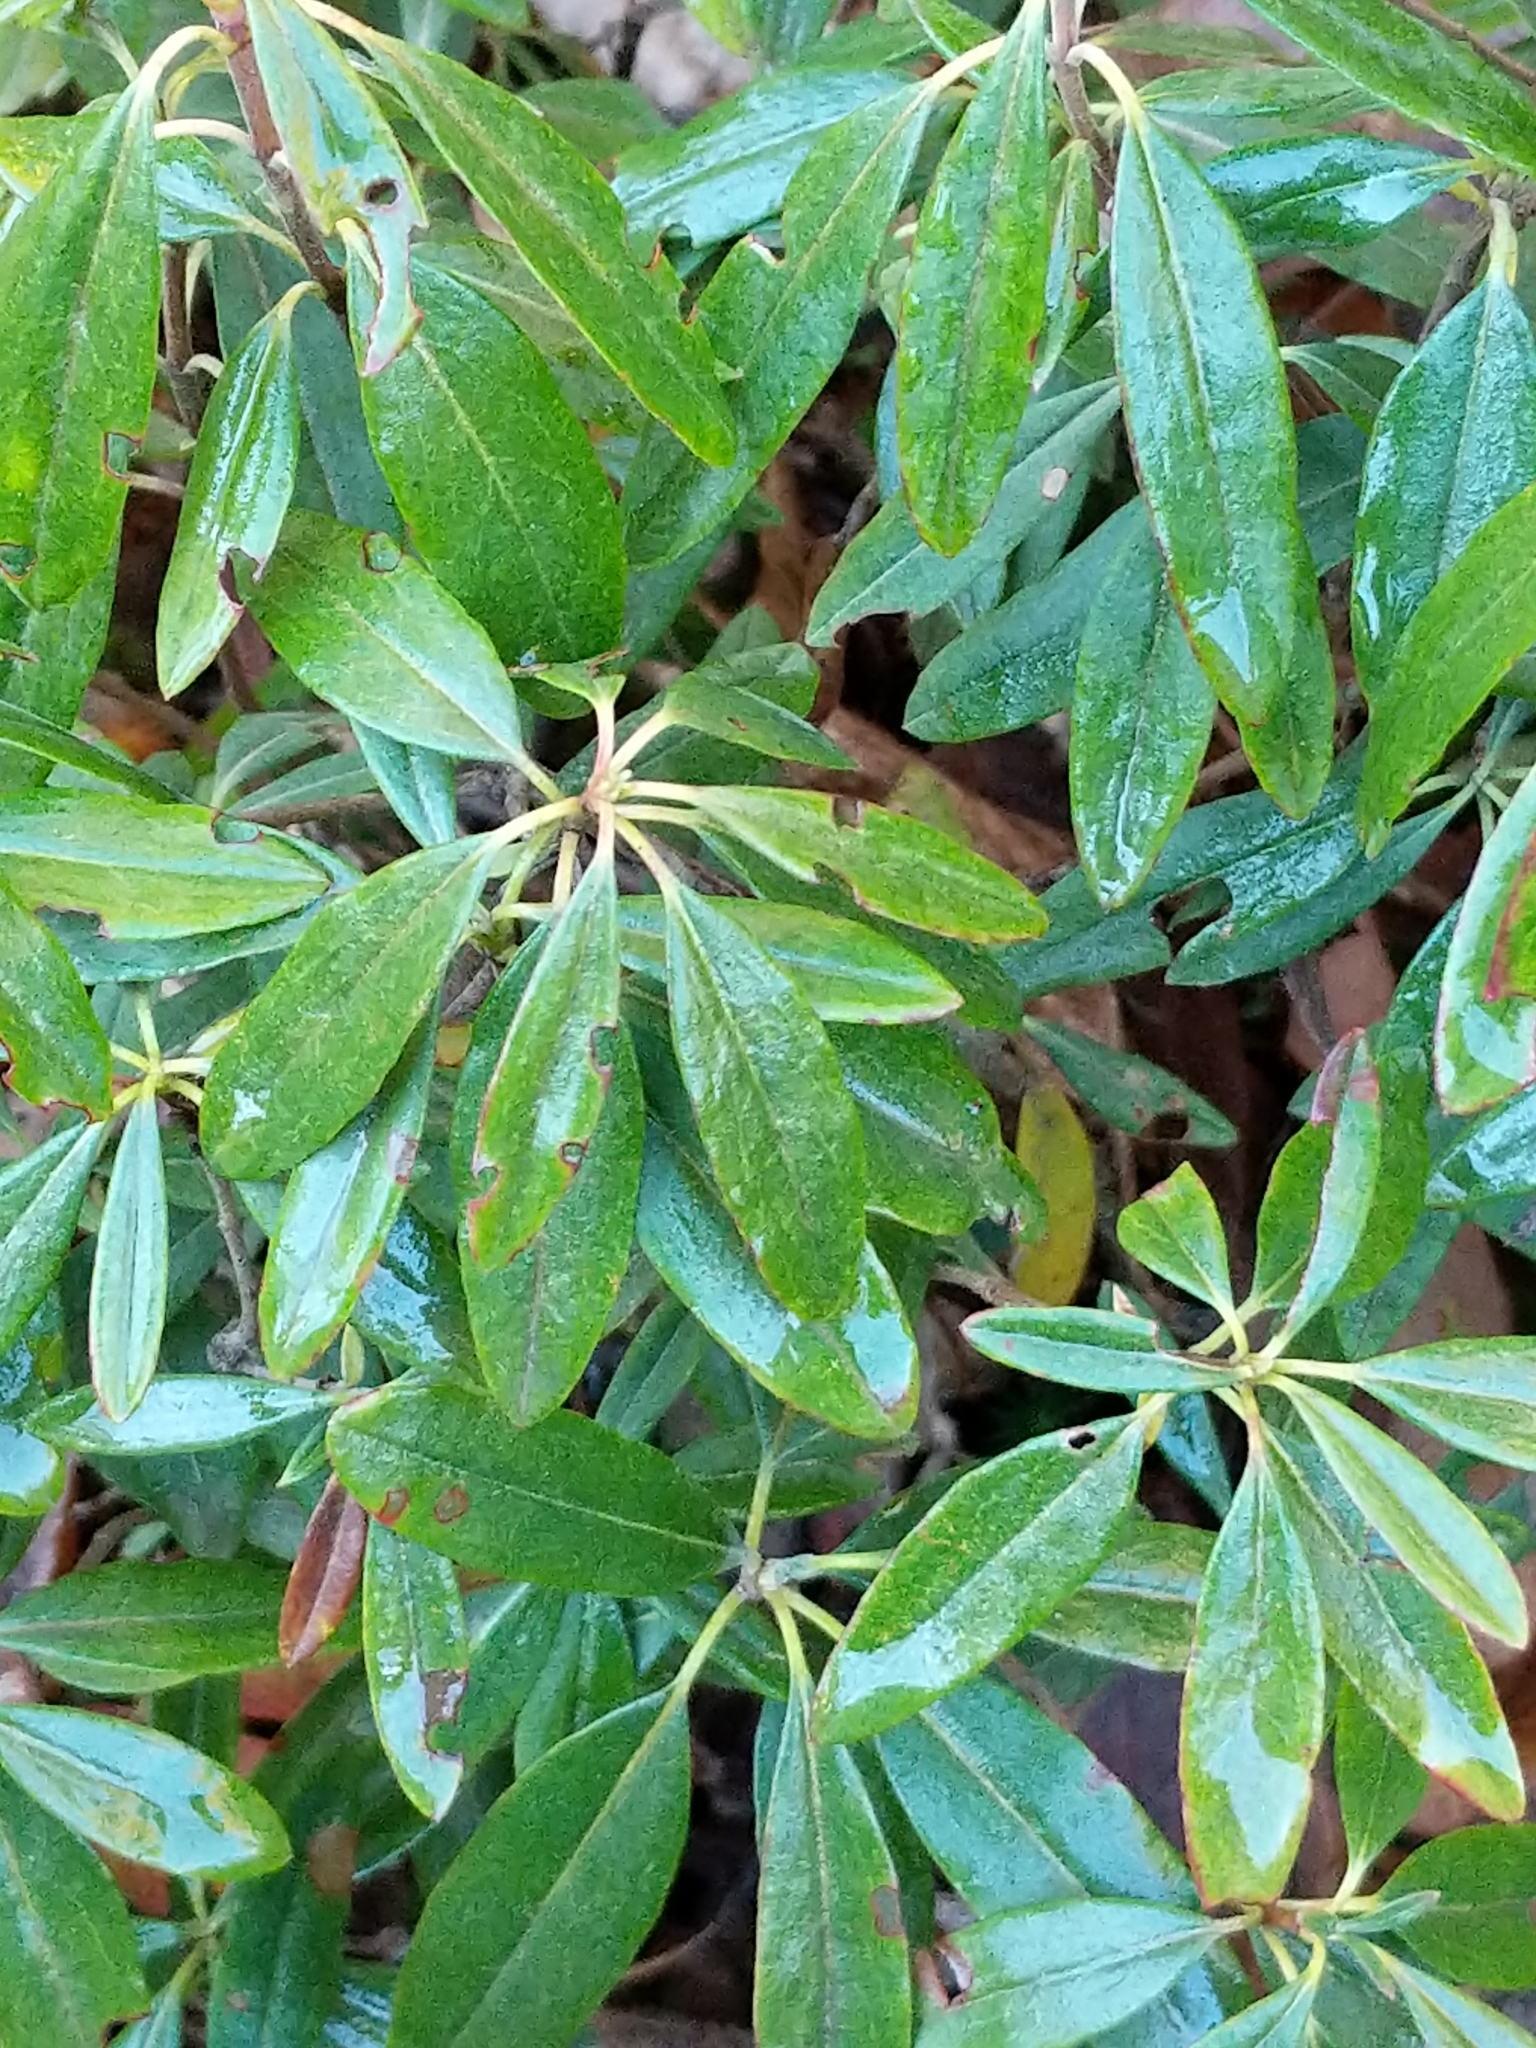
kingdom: Plantae
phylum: Tracheophyta
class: Magnoliopsida
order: Ericales
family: Ericaceae
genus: Kalmia
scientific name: Kalmia angustifolia
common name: Sheep-laurel
